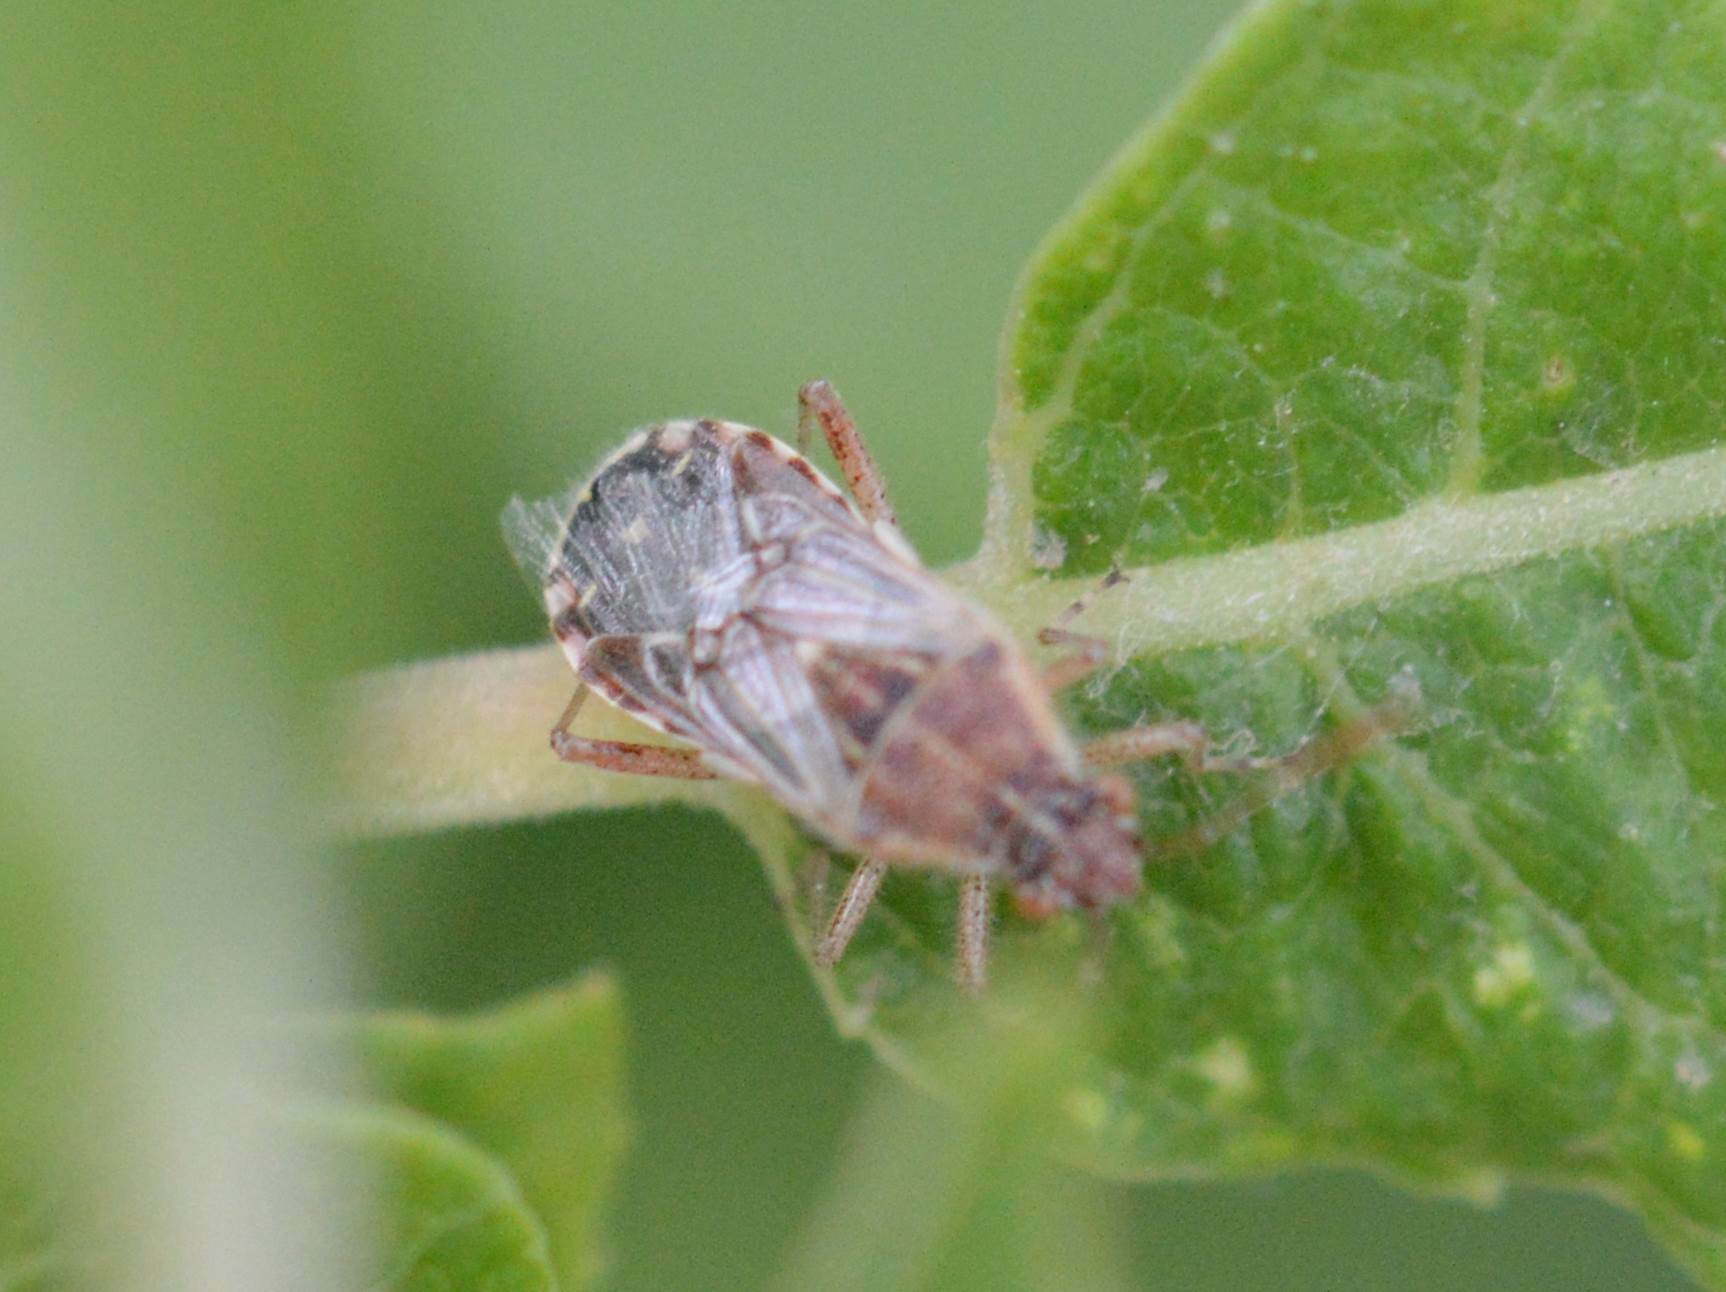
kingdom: Animalia
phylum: Arthropoda
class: Insecta
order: Hemiptera
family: Rhopalidae
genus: Liorhyssus
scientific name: Liorhyssus hyalinus
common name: Scentless plant bug
